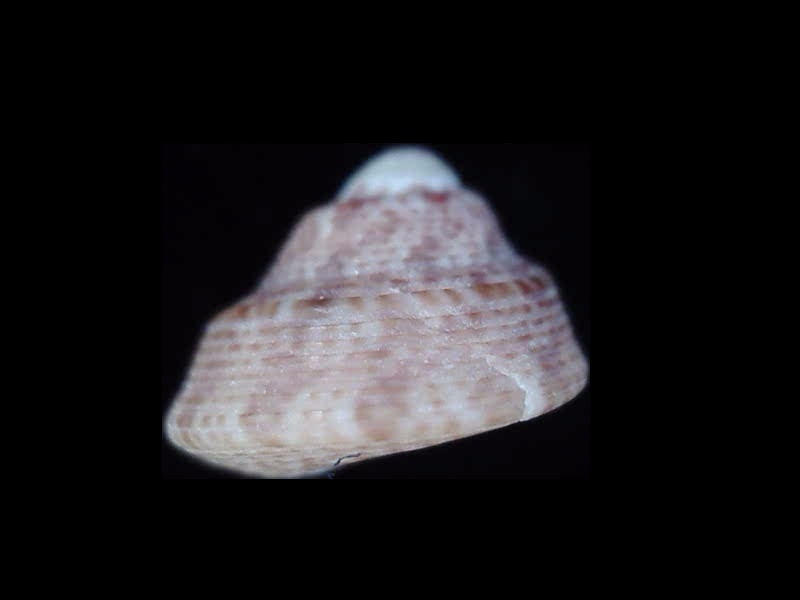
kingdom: Animalia
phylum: Mollusca
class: Gastropoda
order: Trochida
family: Trochidae
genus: Coelotrochus
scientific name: Coelotrochus oppressus
